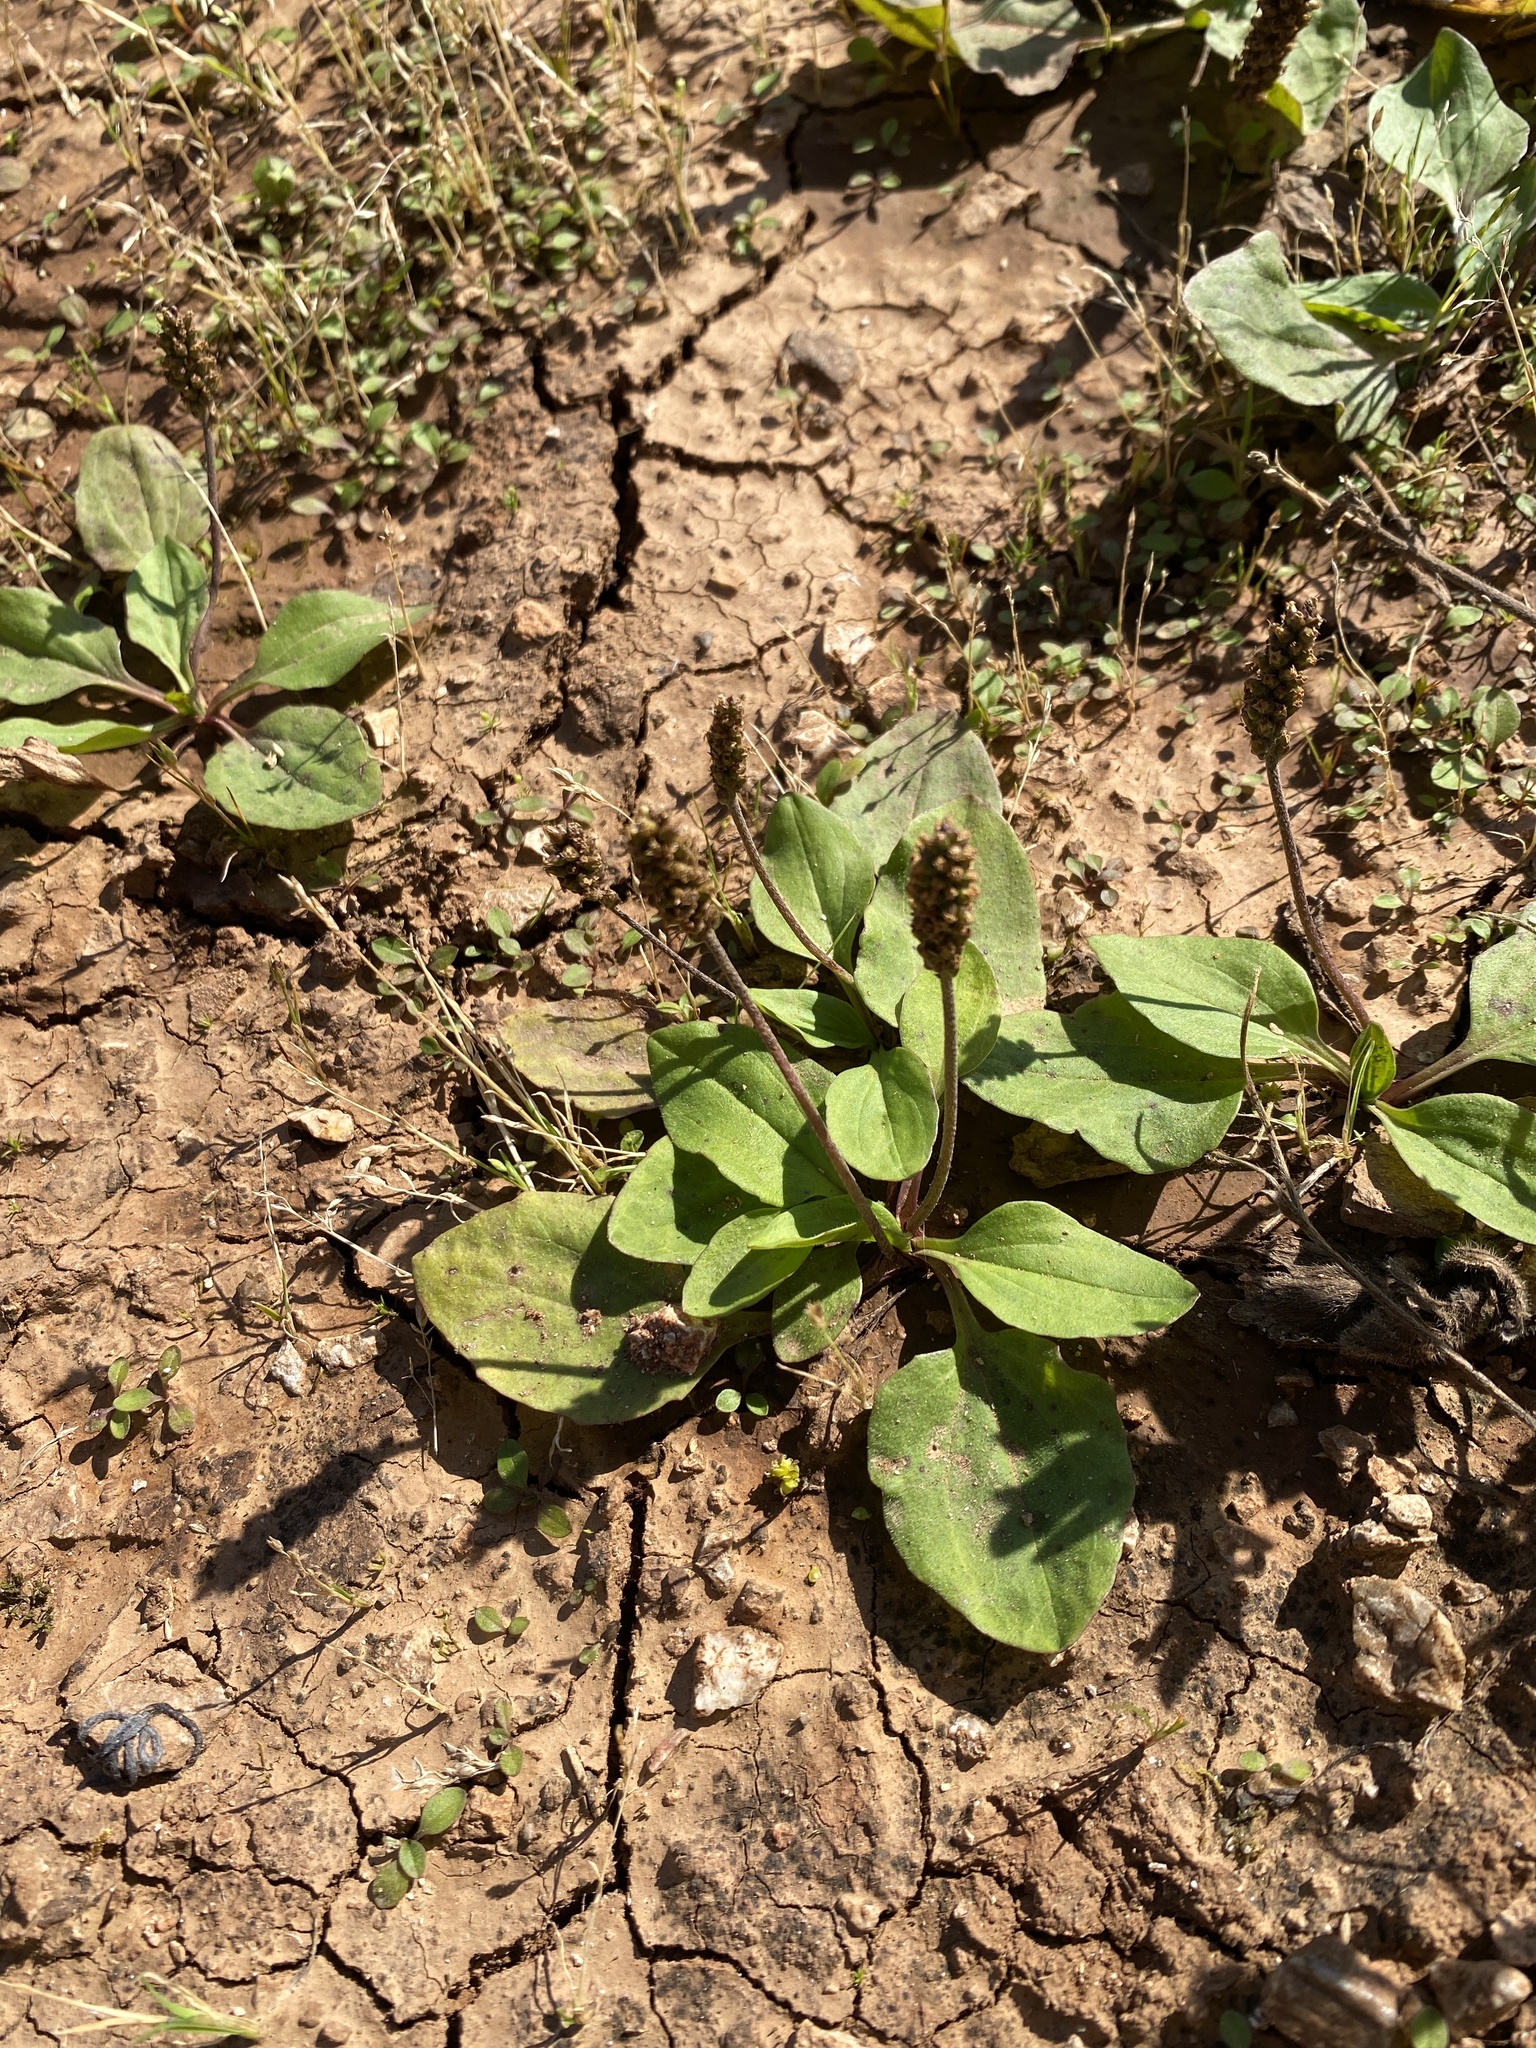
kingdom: Plantae
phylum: Tracheophyta
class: Magnoliopsida
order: Lamiales
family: Plantaginaceae
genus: Plantago
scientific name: Plantago major
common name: Common plantain
